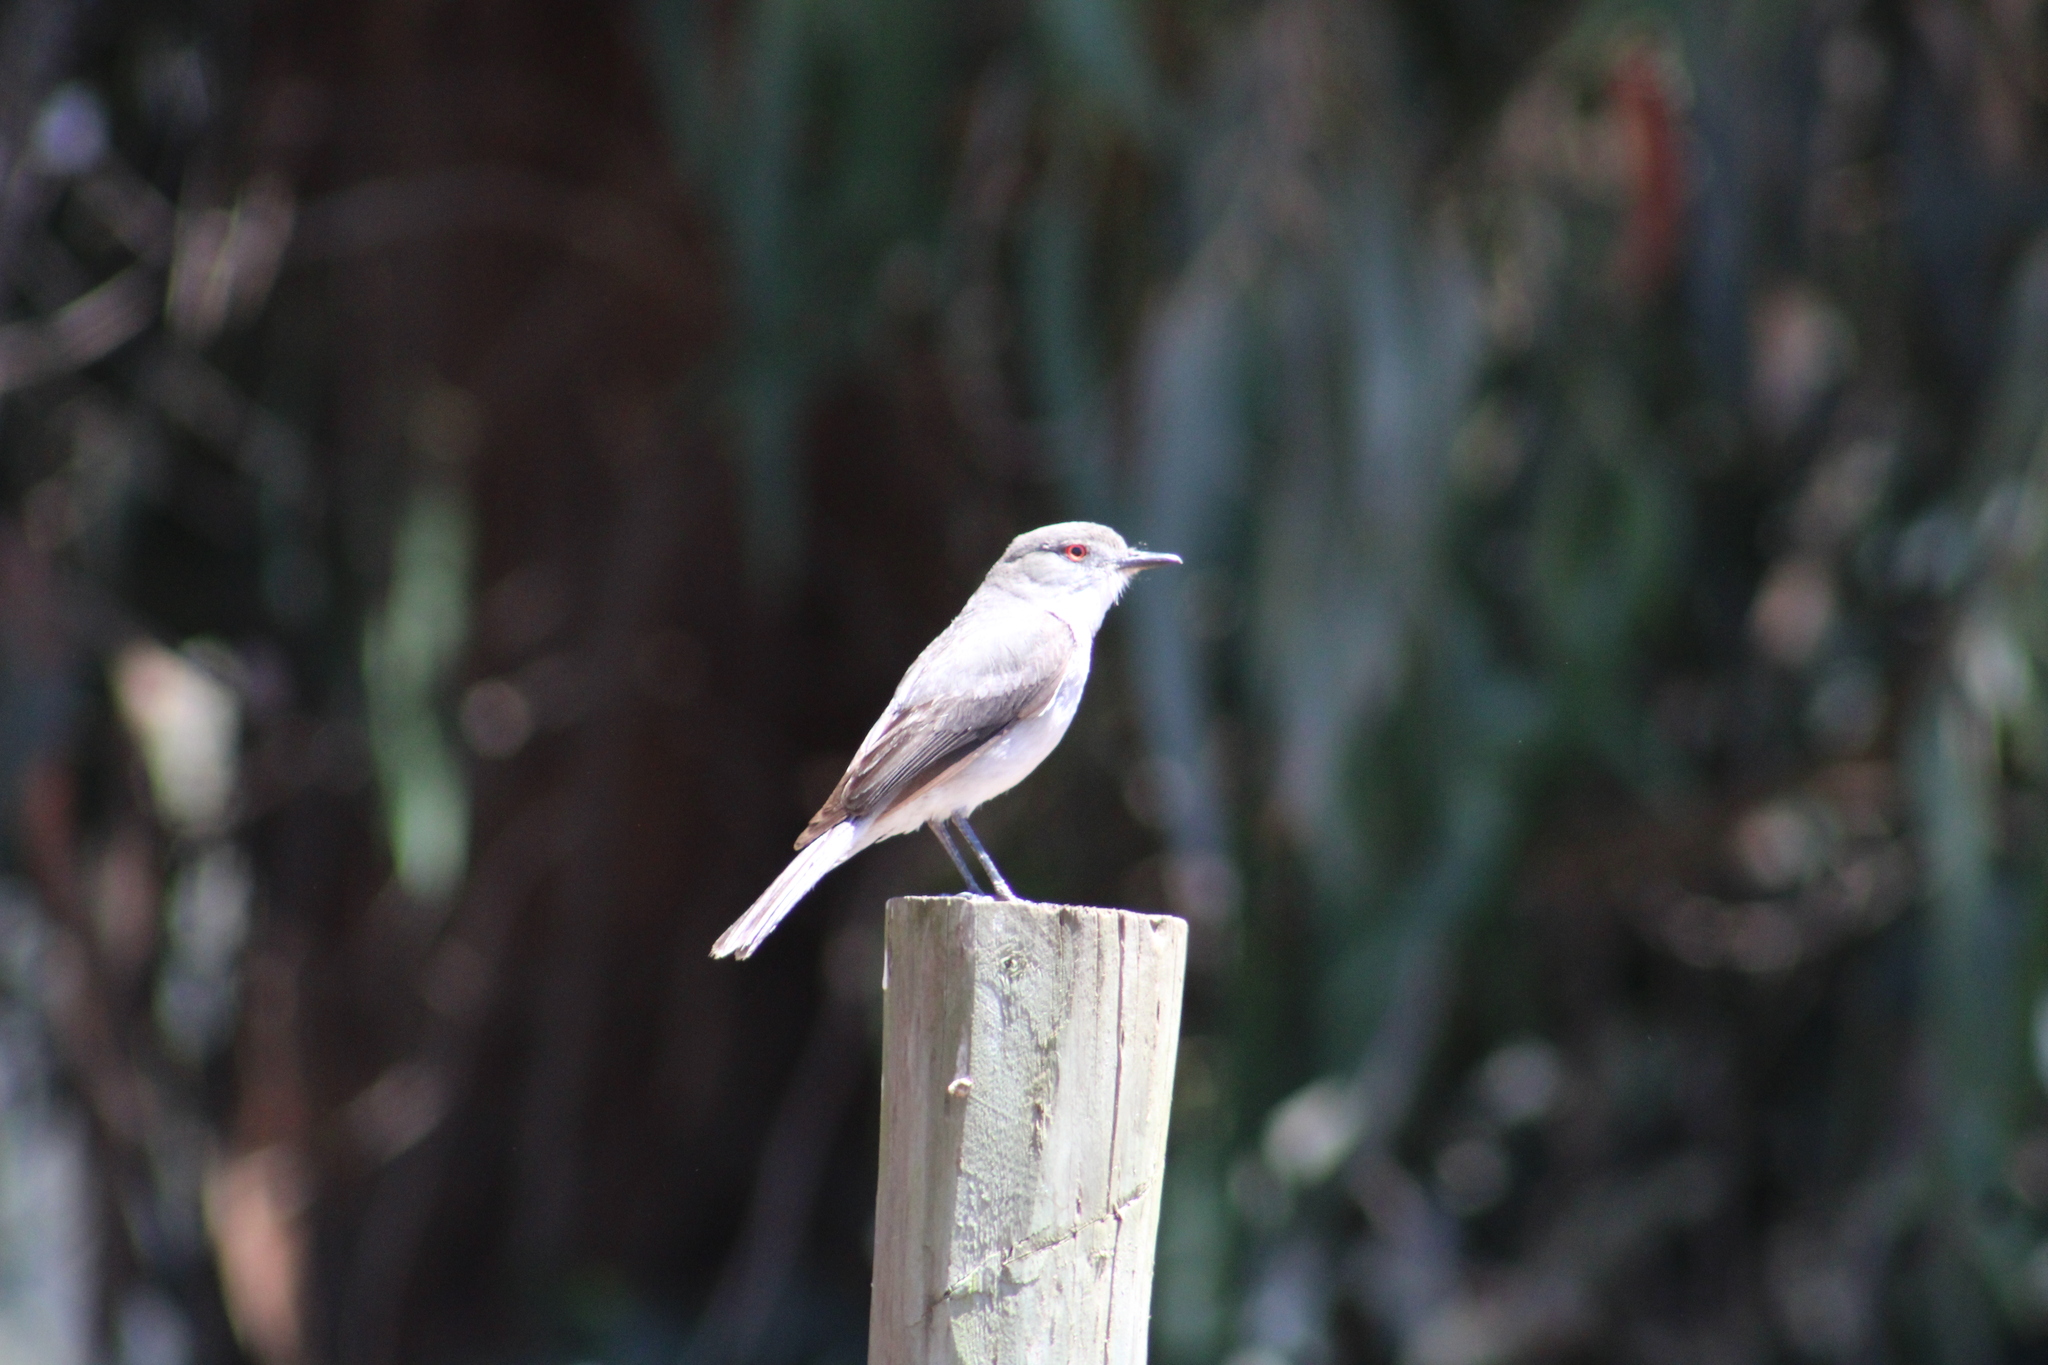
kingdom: Animalia
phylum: Chordata
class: Aves
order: Passeriformes
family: Tyrannidae
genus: Xolmis
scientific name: Xolmis pyrope
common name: Fire-eyed diucon
